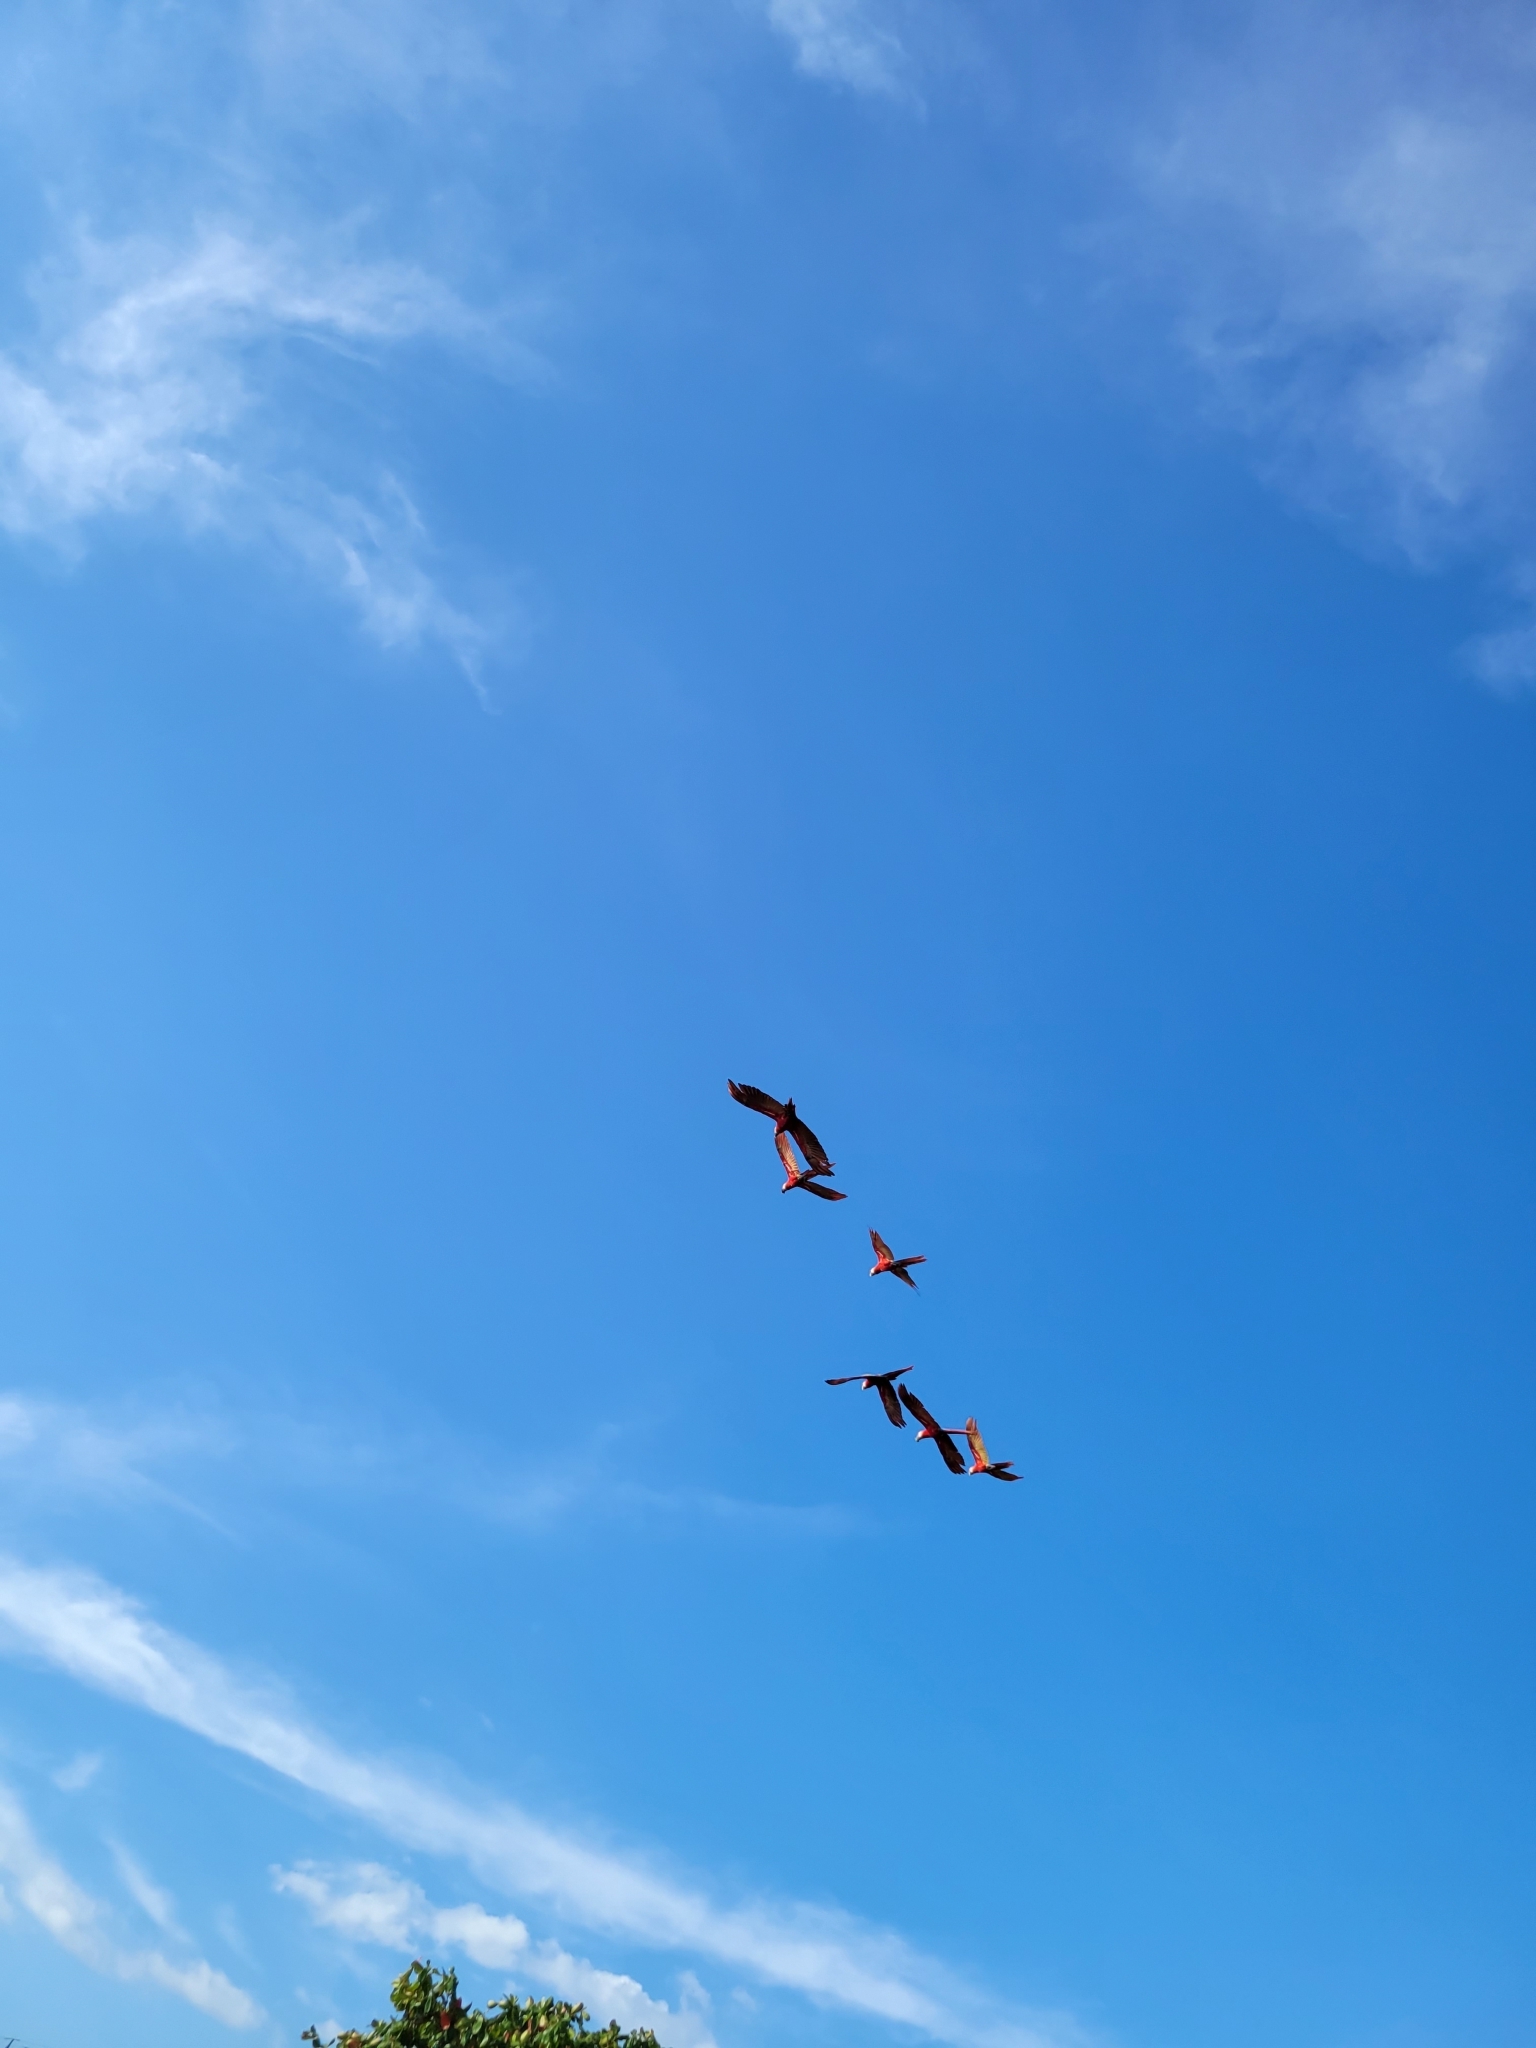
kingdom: Animalia
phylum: Chordata
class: Aves
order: Psittaciformes
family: Psittacidae
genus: Ara
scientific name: Ara macao
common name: Scarlet macaw
